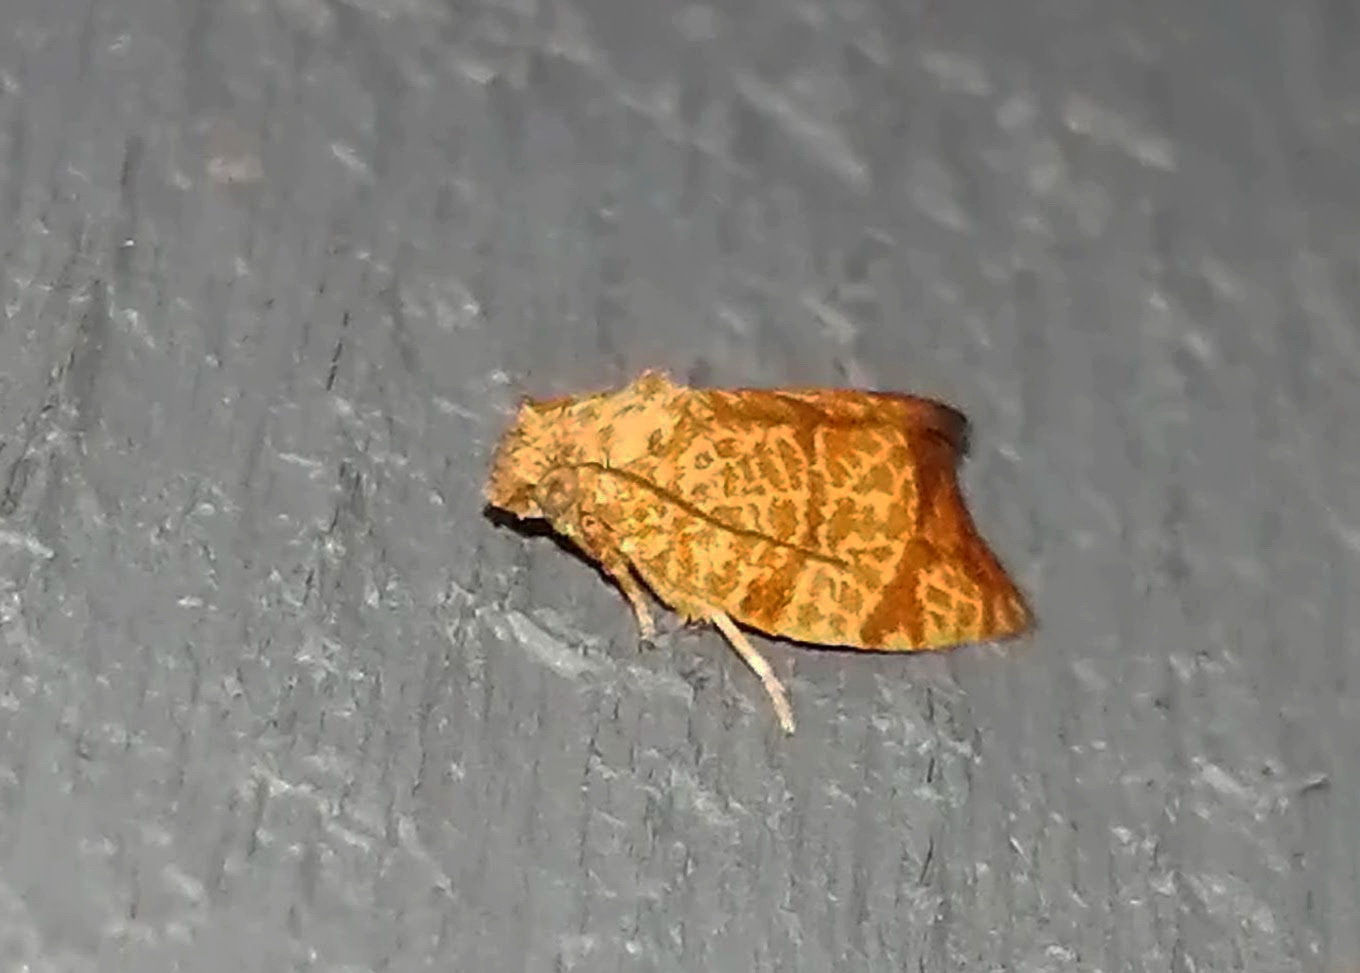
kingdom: Animalia
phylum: Arthropoda
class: Insecta
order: Lepidoptera
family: Tortricidae
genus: Argyrotaenia
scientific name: Argyrotaenia quadrifasciana
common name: Four-lined leafroller moth
